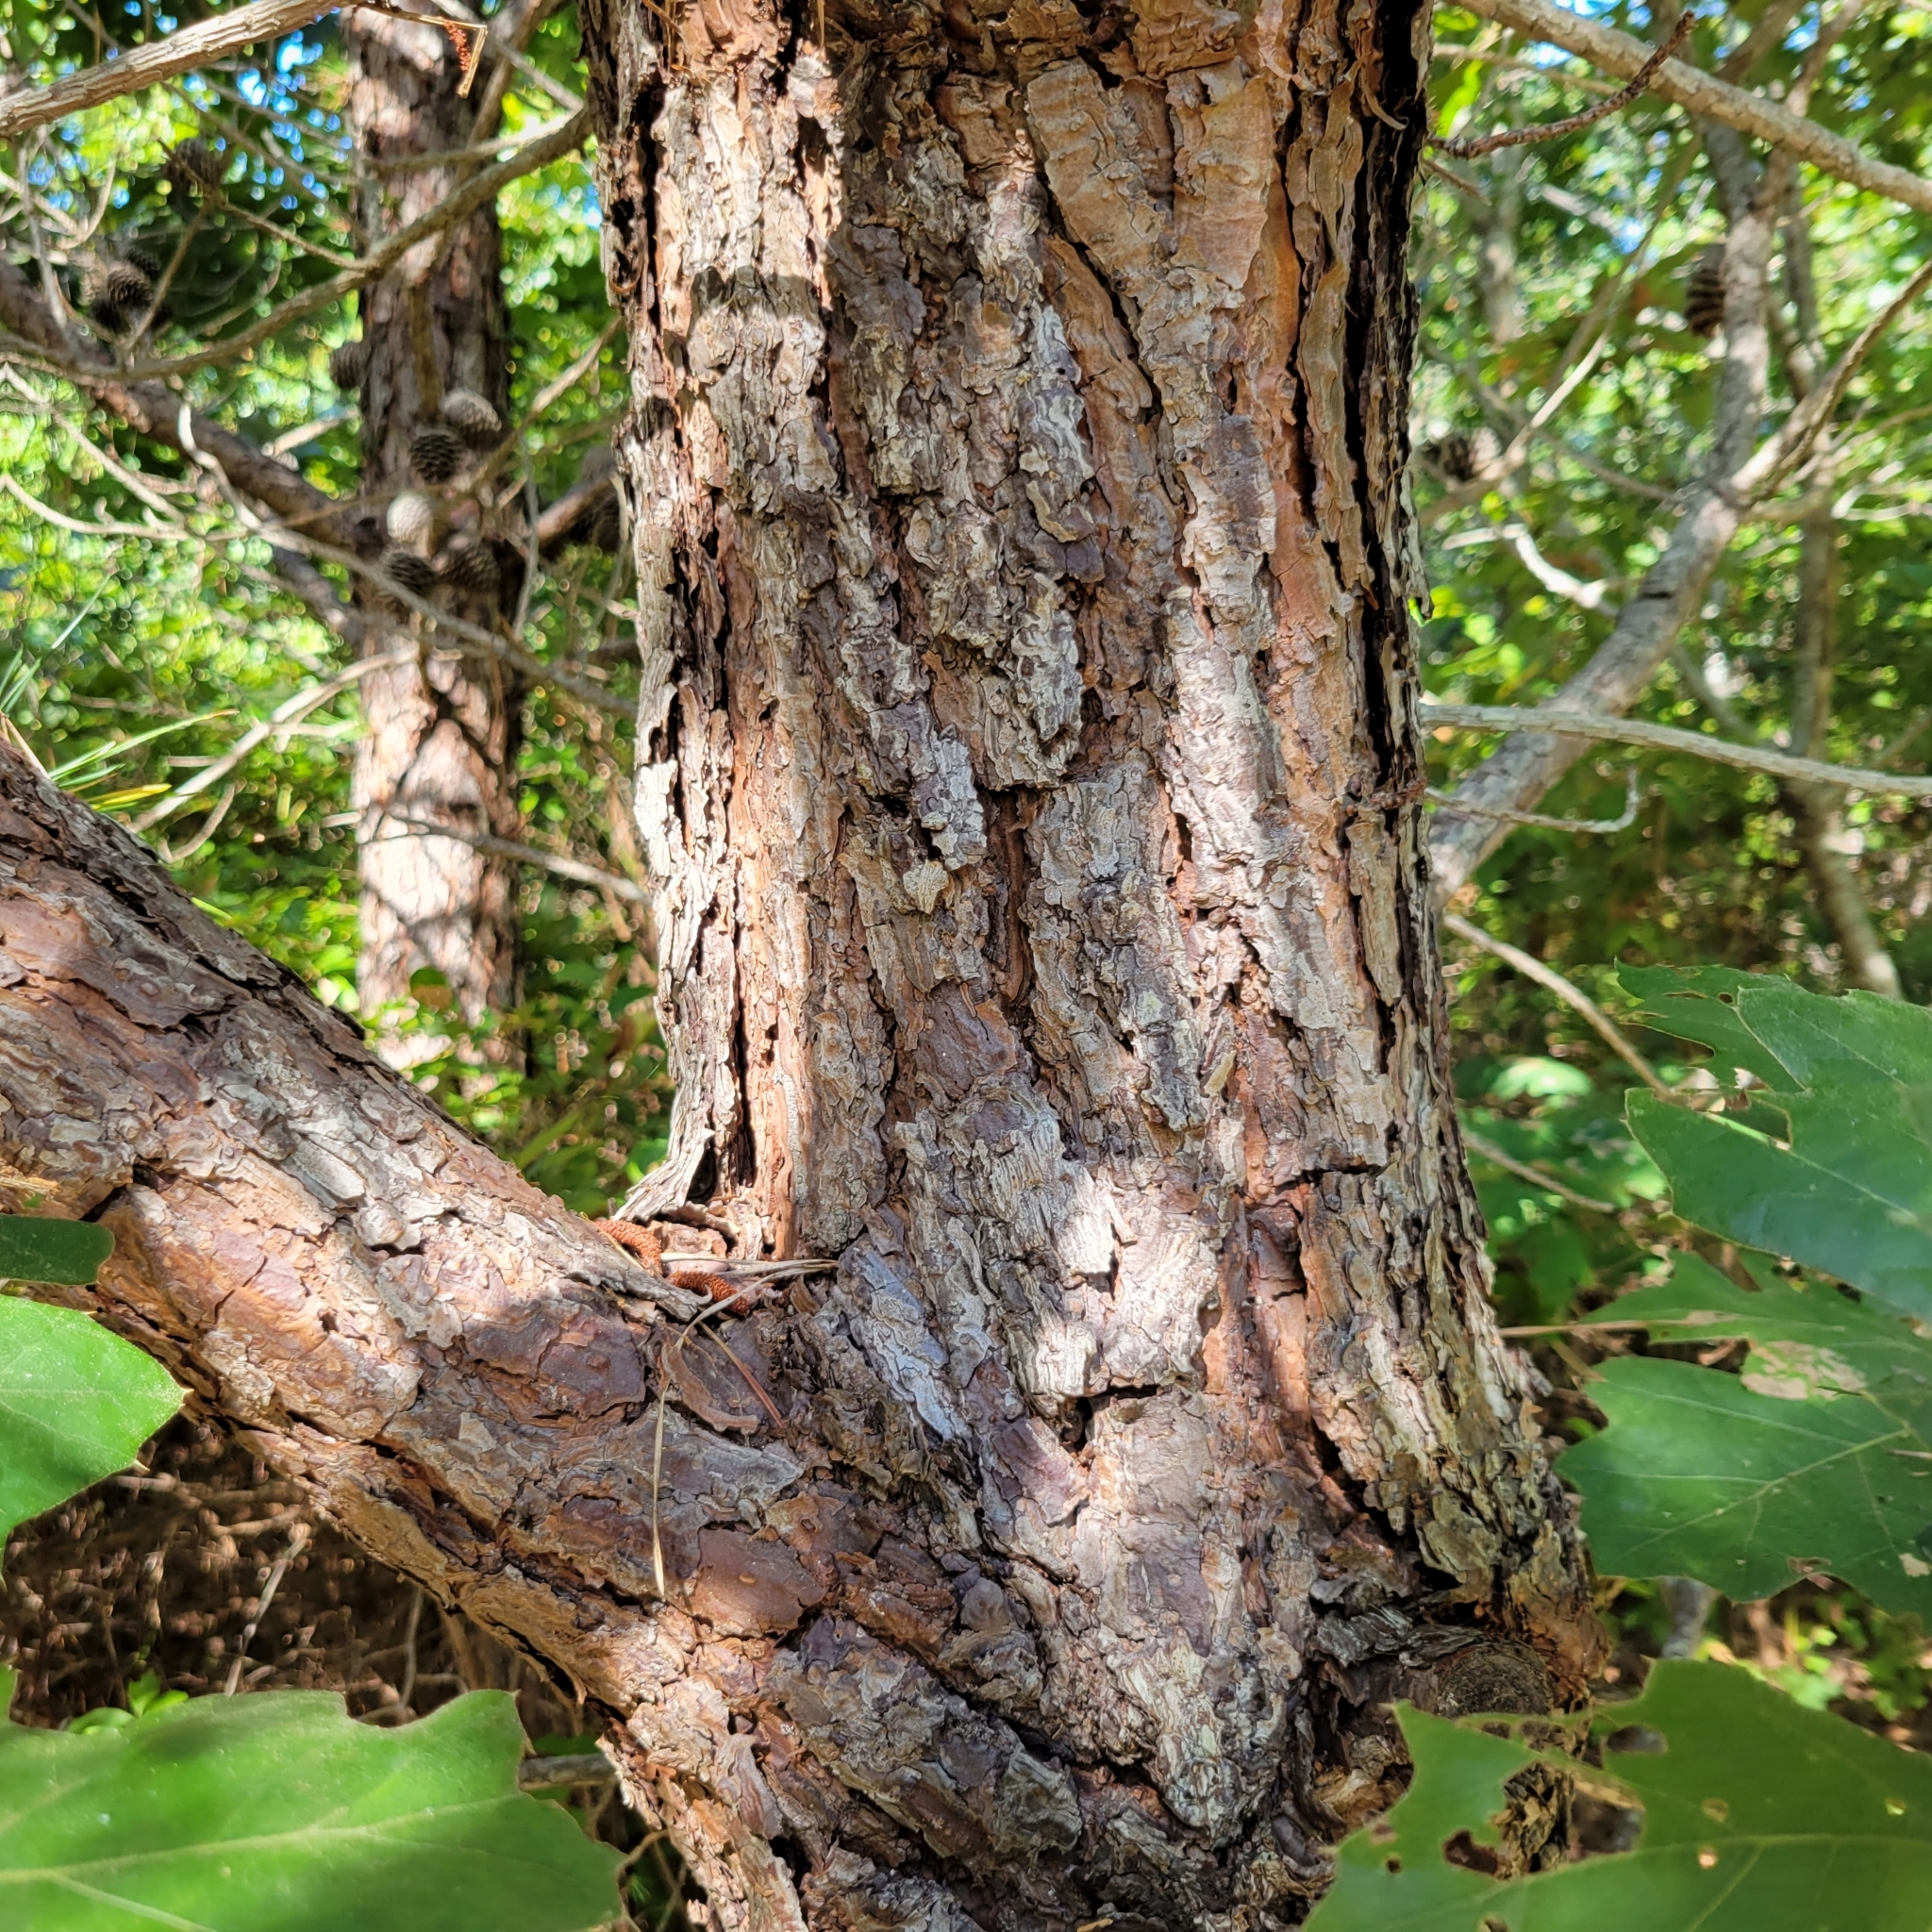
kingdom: Plantae
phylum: Tracheophyta
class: Pinopsida
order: Pinales
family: Pinaceae
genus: Pinus
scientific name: Pinus rigida
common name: Pitch pine
